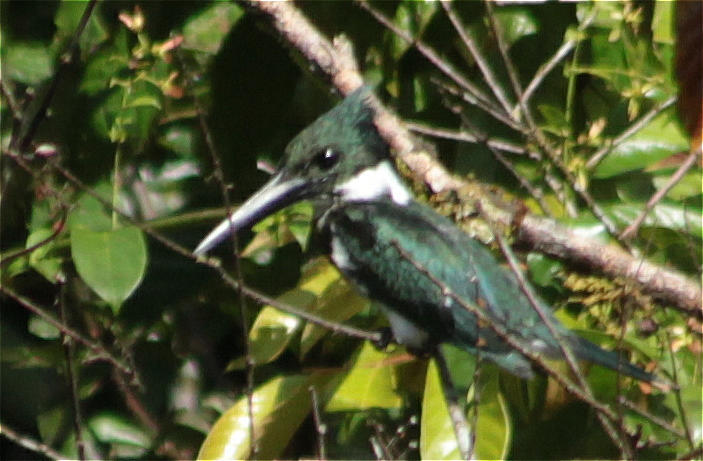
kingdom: Animalia
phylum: Chordata
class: Aves
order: Coraciiformes
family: Alcedinidae
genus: Chloroceryle
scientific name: Chloroceryle amazona
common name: Amazon kingfisher
